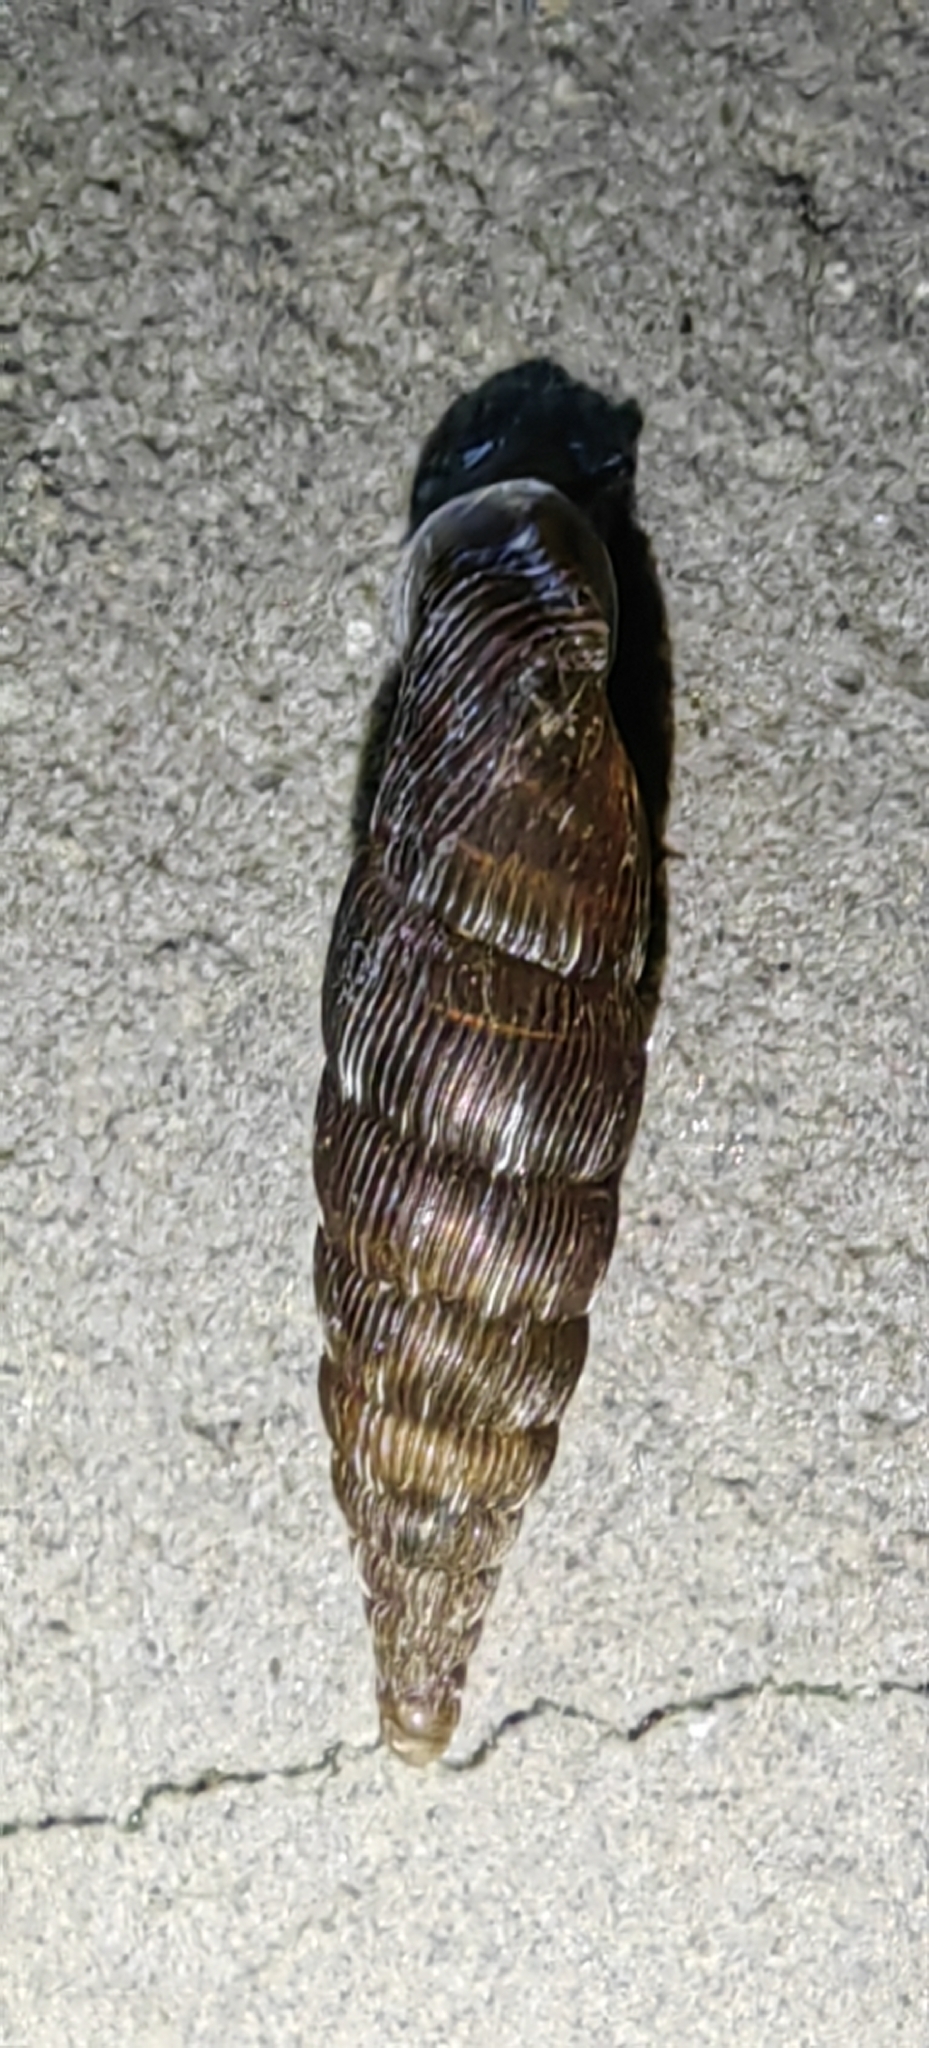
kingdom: Animalia
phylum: Mollusca
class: Gastropoda
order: Stylommatophora
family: Clausiliidae
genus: Alinda
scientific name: Alinda biplicata
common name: Thames door snail
